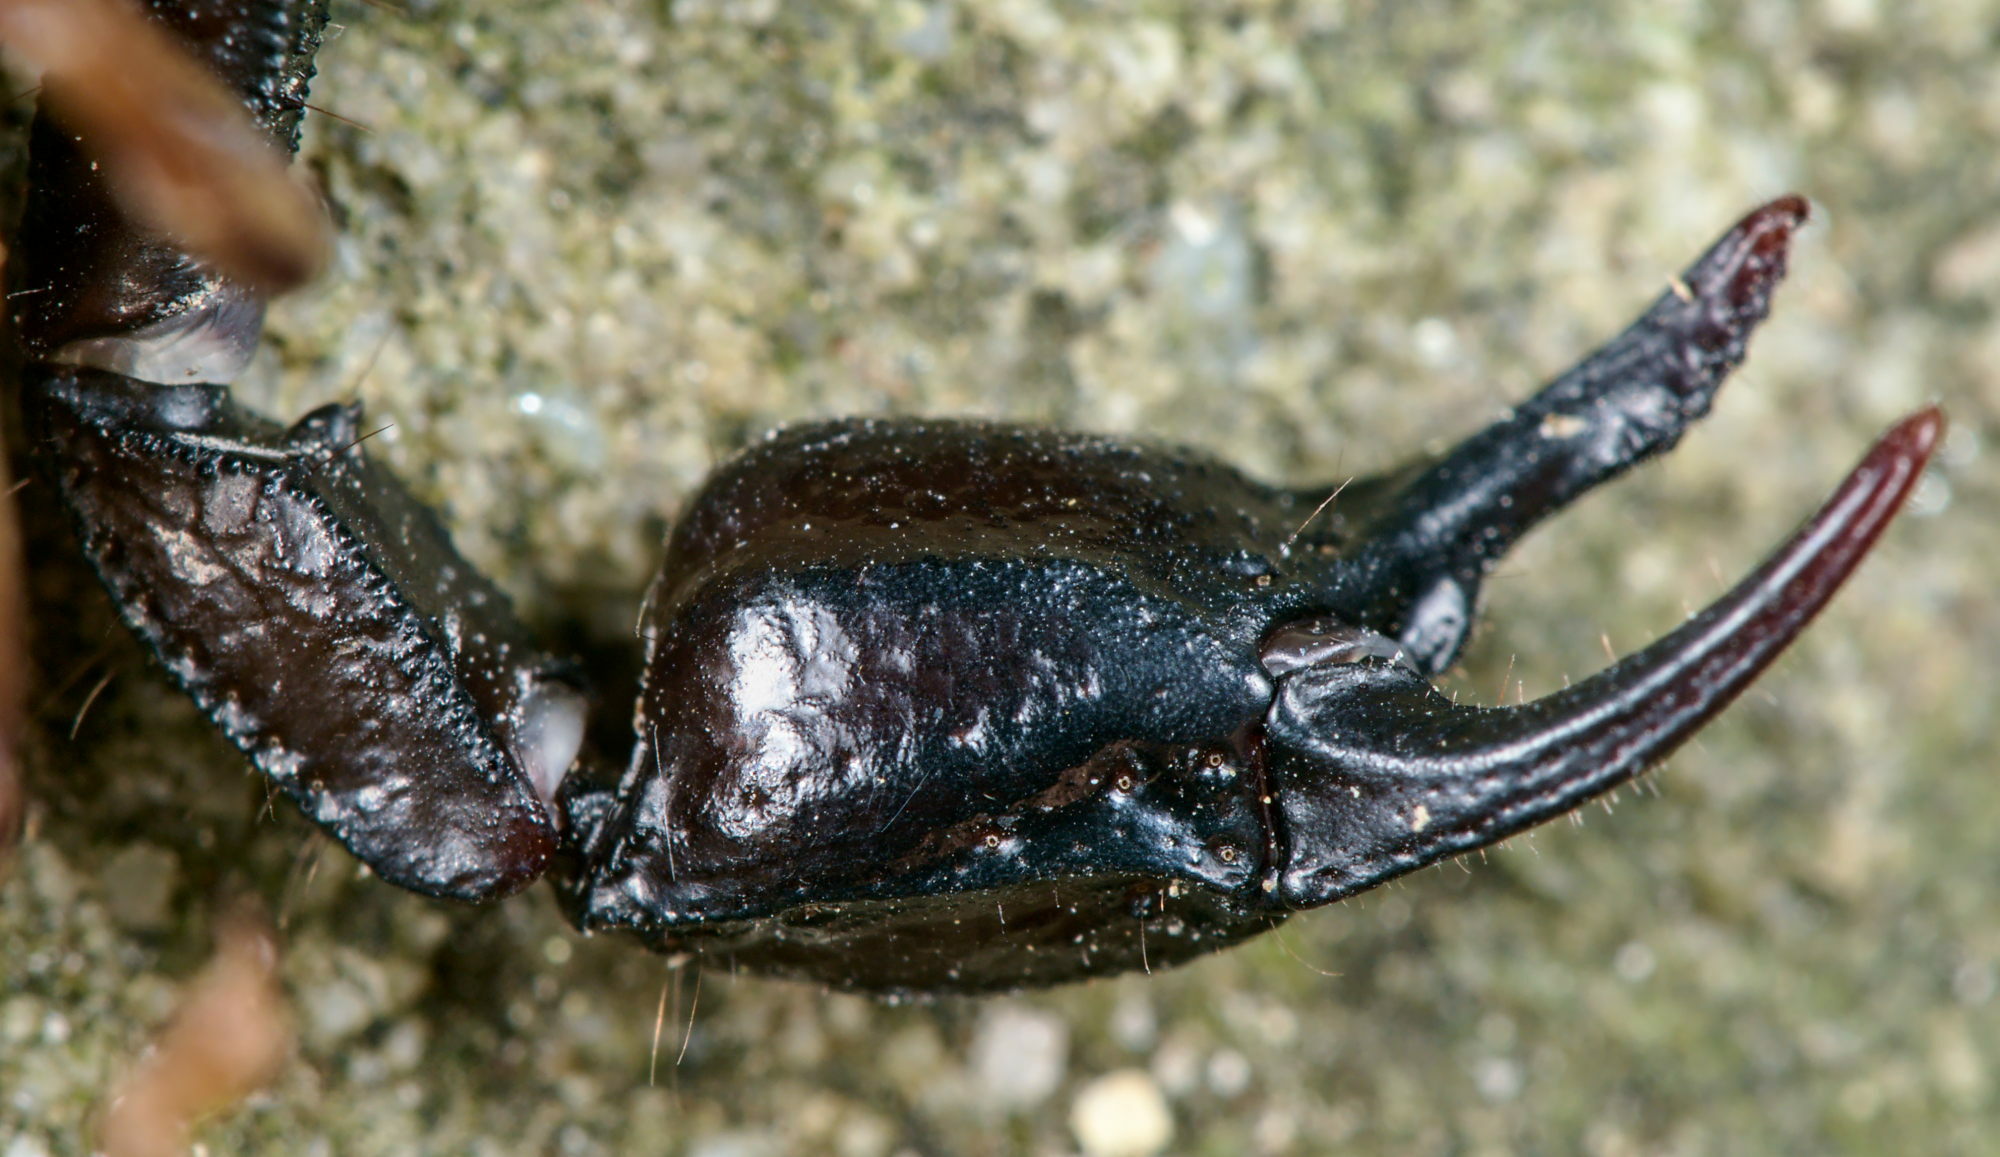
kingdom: Animalia
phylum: Arthropoda
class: Arachnida
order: Scorpiones
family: Euscorpiidae
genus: Euscorpius
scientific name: Euscorpius concinnus
